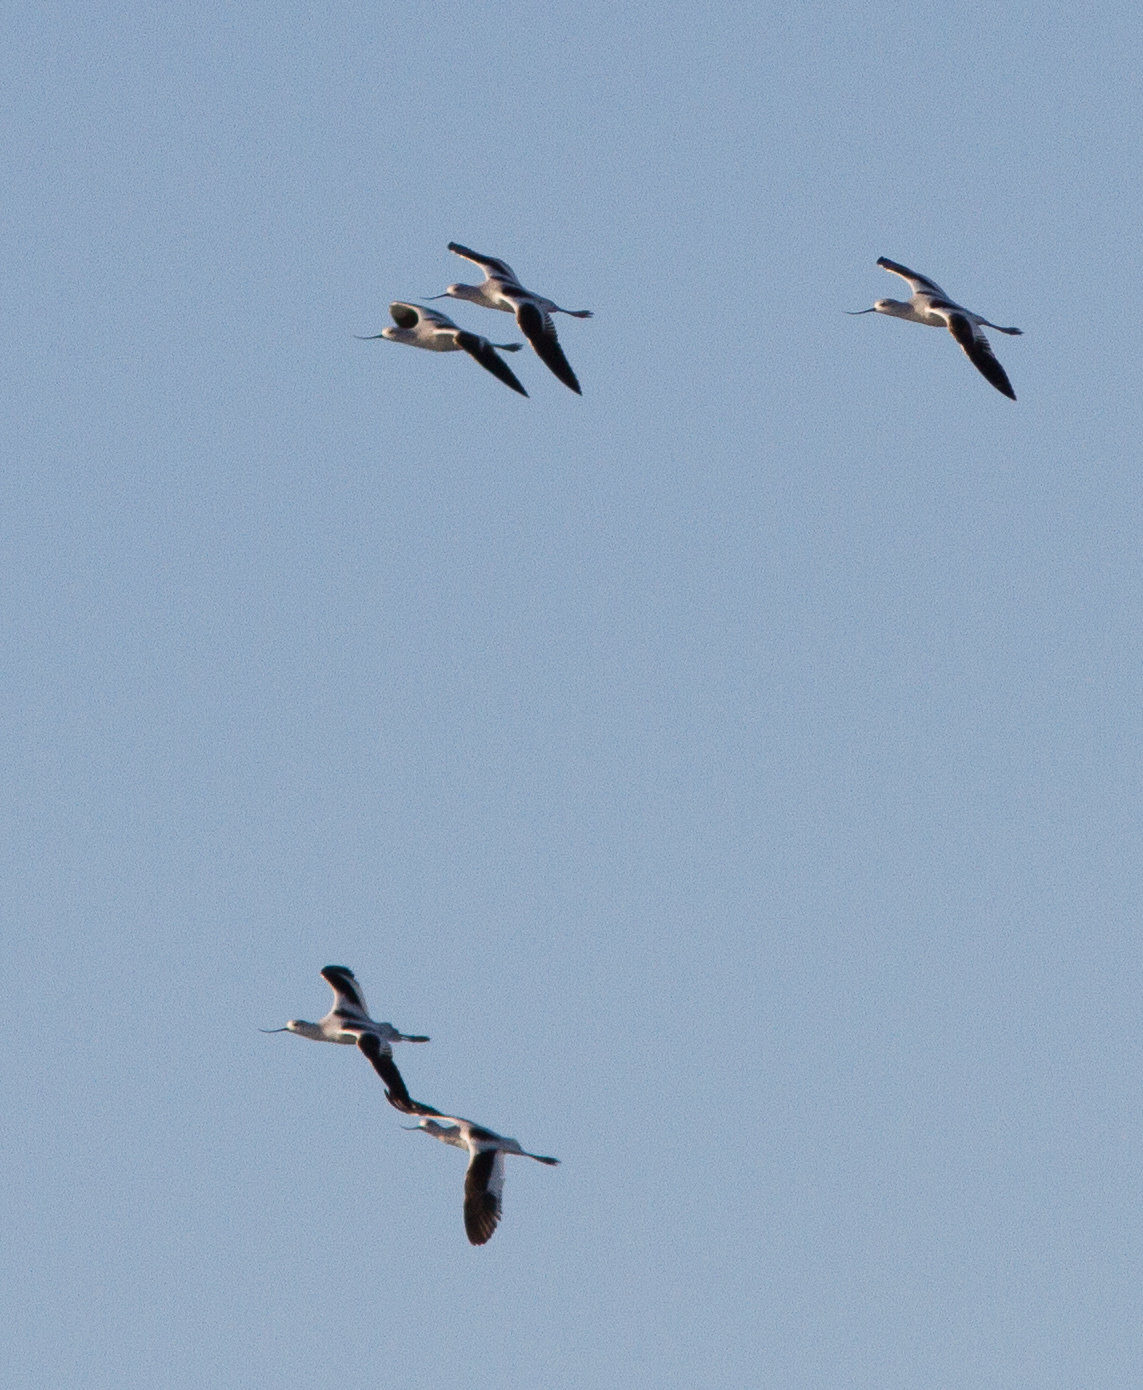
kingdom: Animalia
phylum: Chordata
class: Aves
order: Charadriiformes
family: Recurvirostridae
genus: Recurvirostra
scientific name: Recurvirostra americana
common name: American avocet
